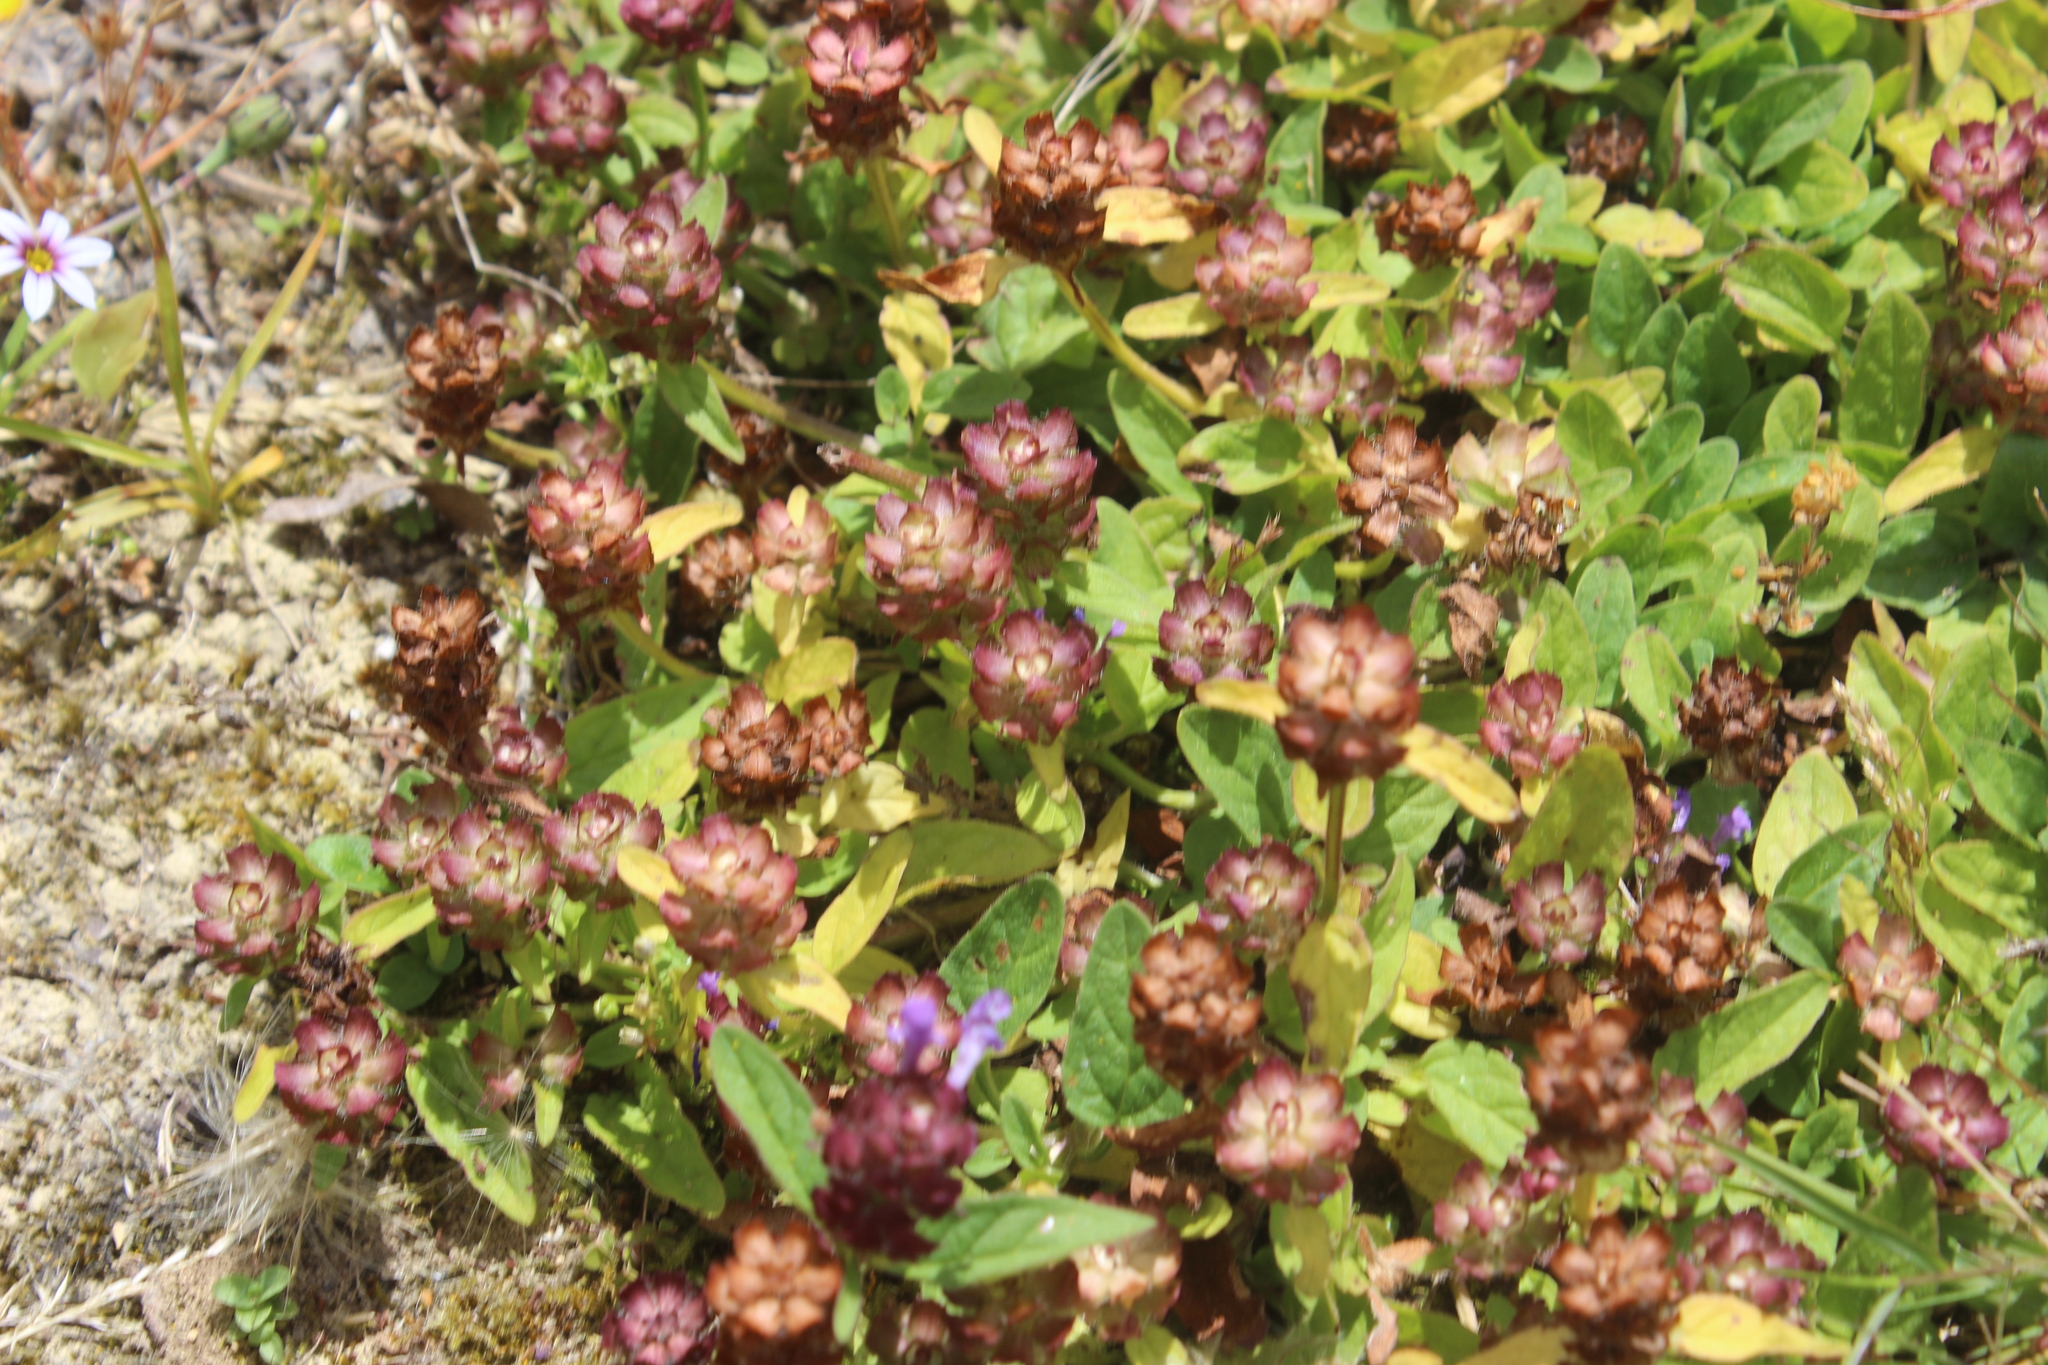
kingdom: Plantae
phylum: Tracheophyta
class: Magnoliopsida
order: Lamiales
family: Lamiaceae
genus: Prunella
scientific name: Prunella vulgaris
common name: Heal-all
